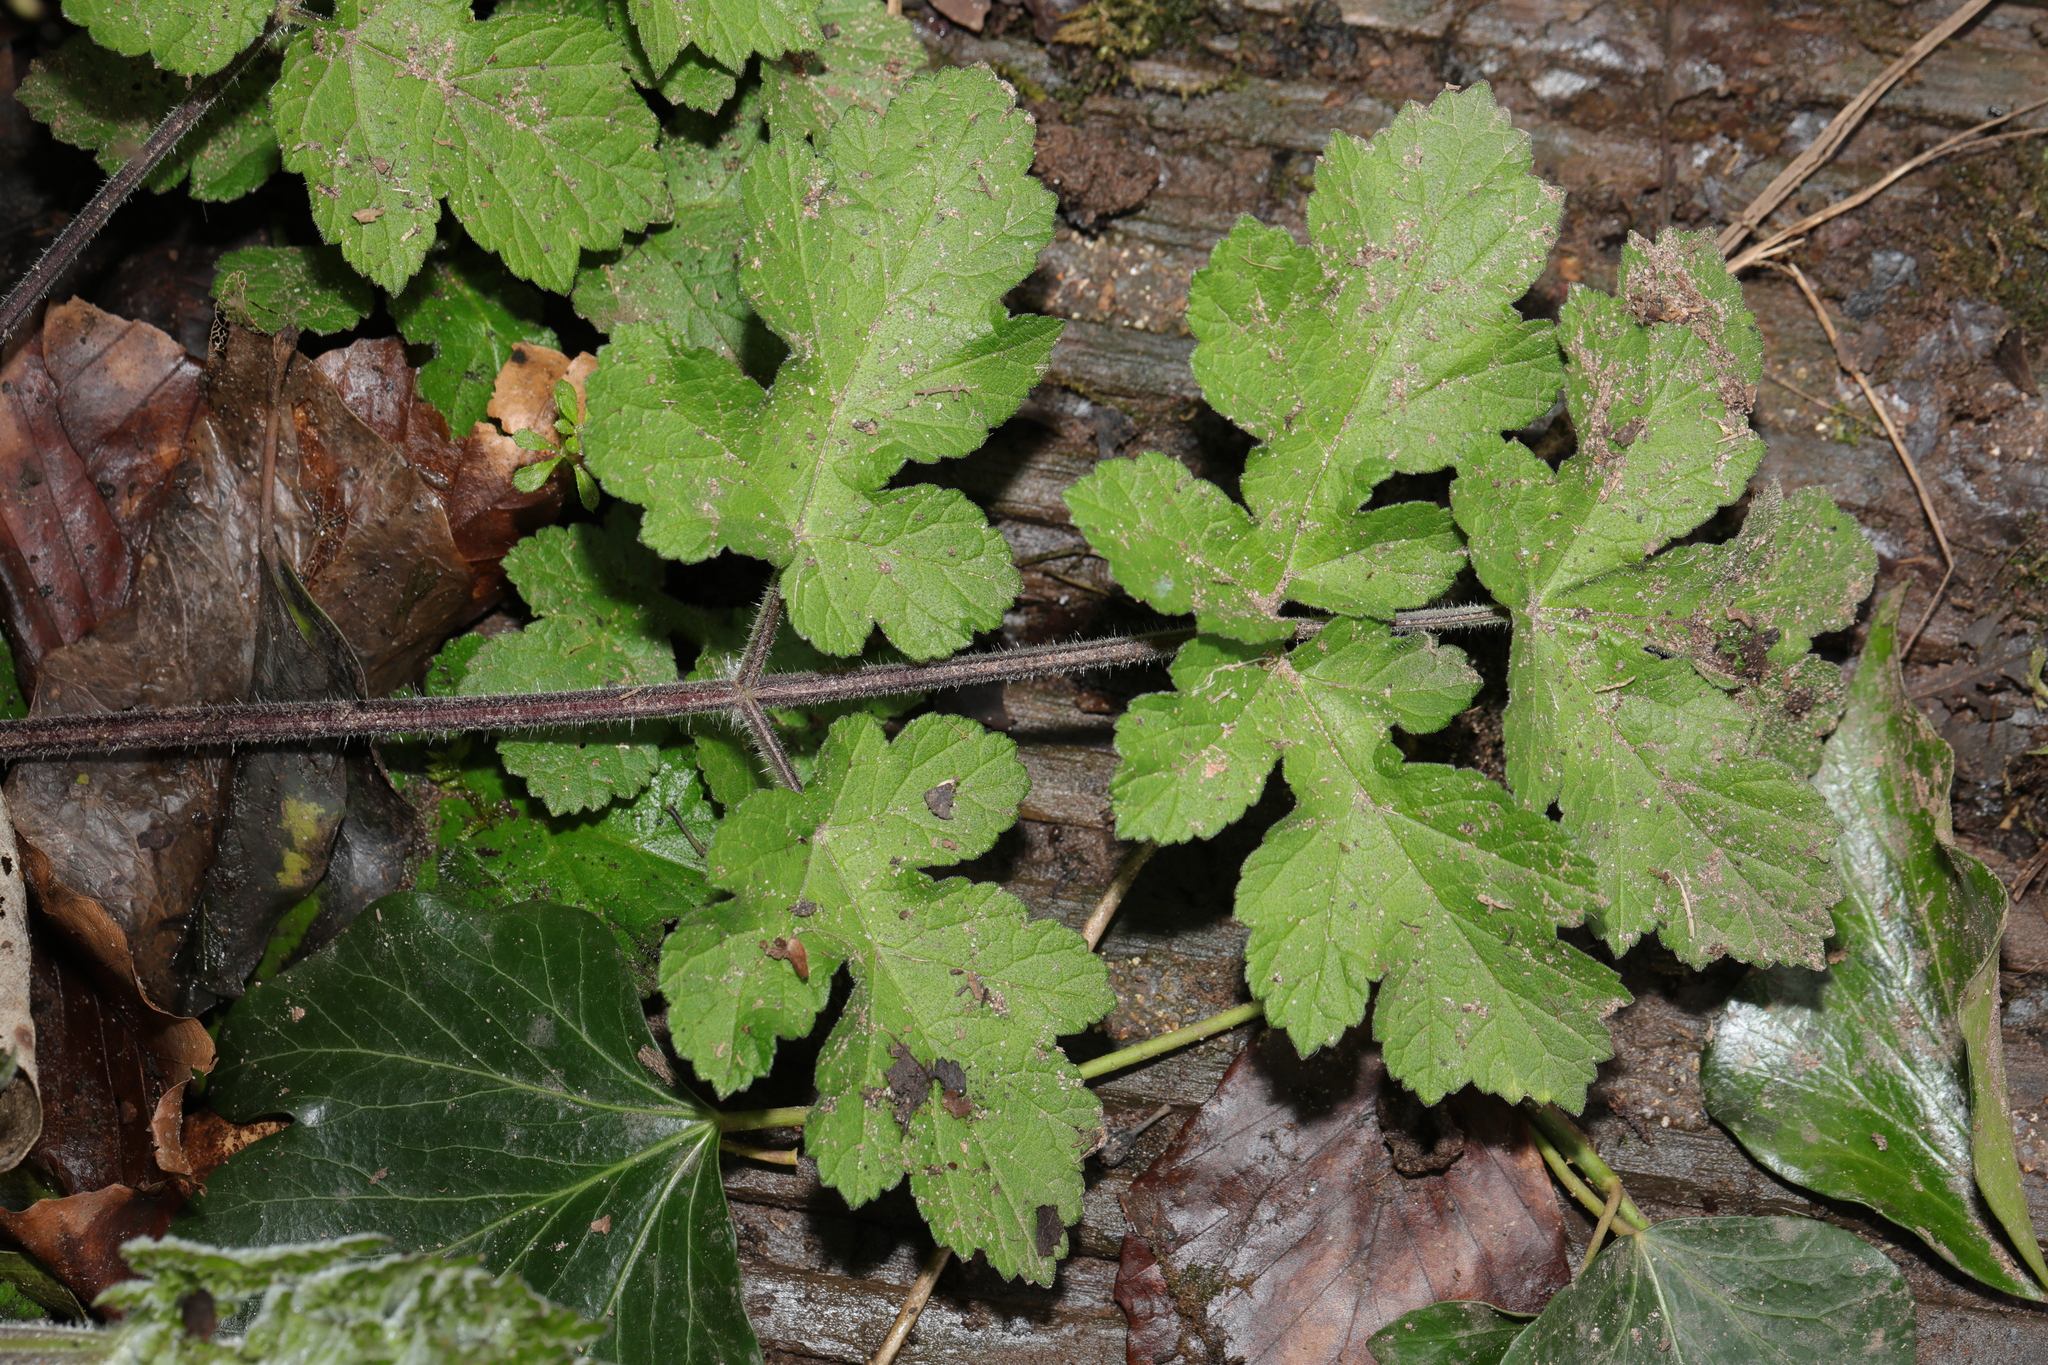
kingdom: Plantae
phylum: Tracheophyta
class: Magnoliopsida
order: Apiales
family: Apiaceae
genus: Heracleum
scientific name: Heracleum sphondylium
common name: Hogweed
